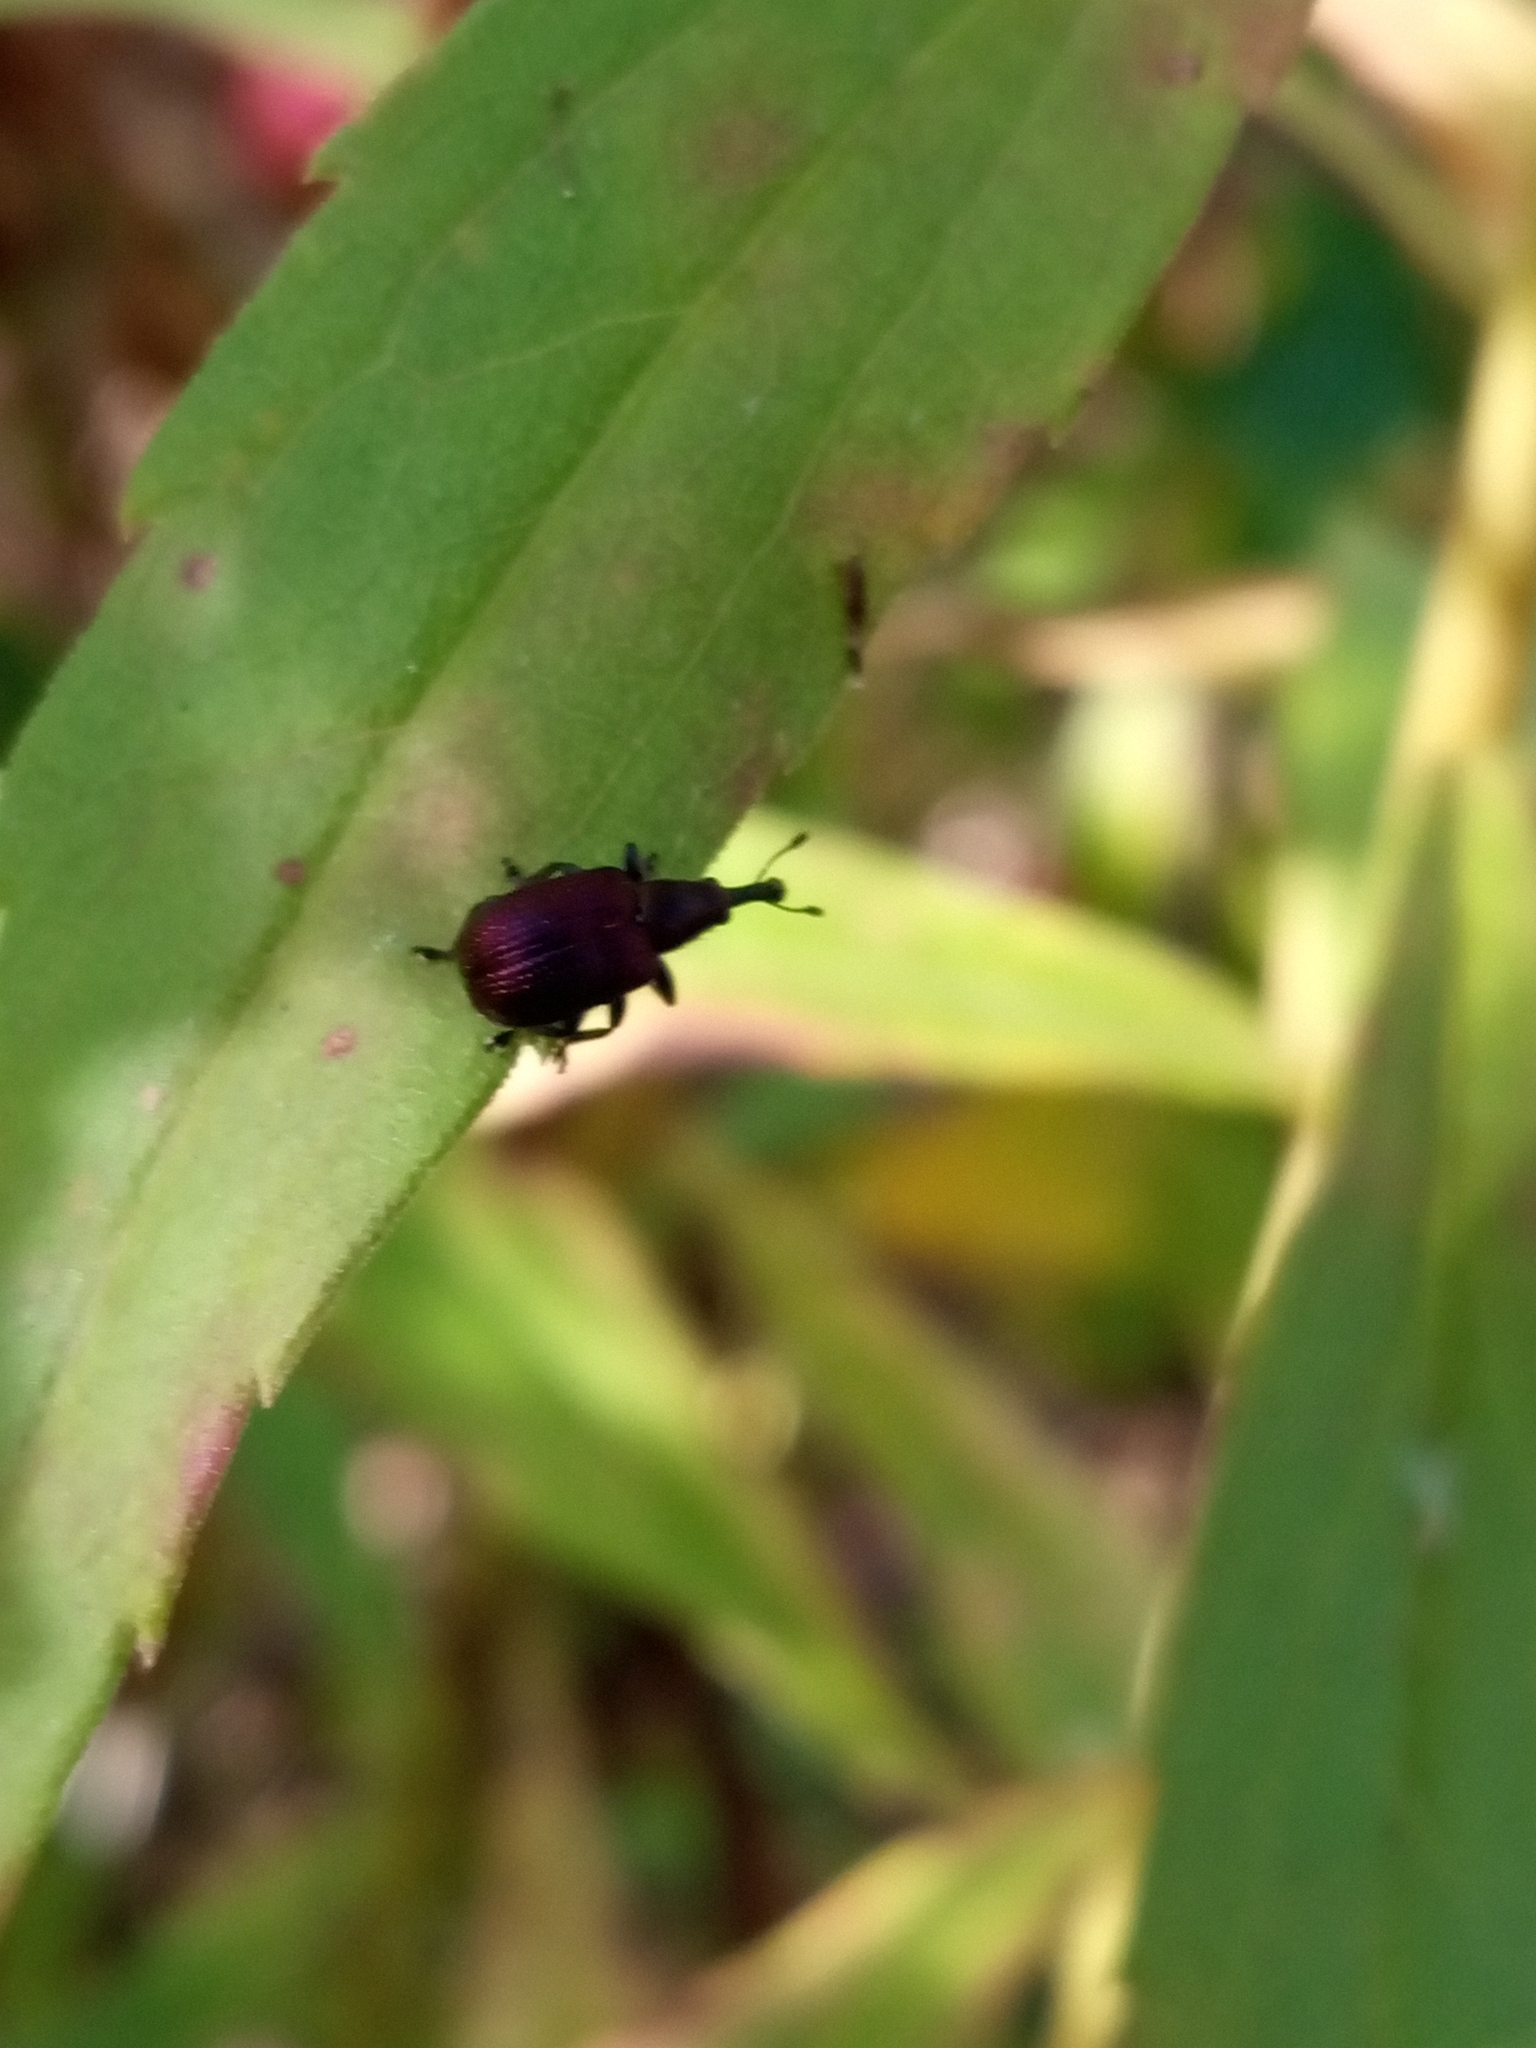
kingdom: Animalia
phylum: Arthropoda
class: Insecta
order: Coleoptera
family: Attelabidae
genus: Rhynchites
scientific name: Rhynchites bacchus
